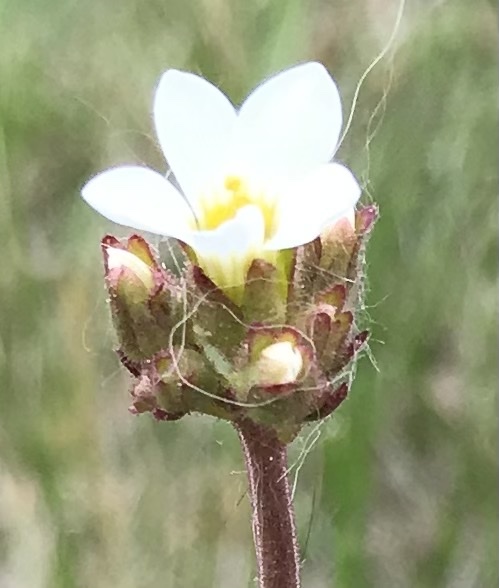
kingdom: Plantae
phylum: Tracheophyta
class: Magnoliopsida
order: Saxifragales
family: Saxifragaceae
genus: Saxifraga
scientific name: Saxifraga granulata
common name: Meadow saxifrage
